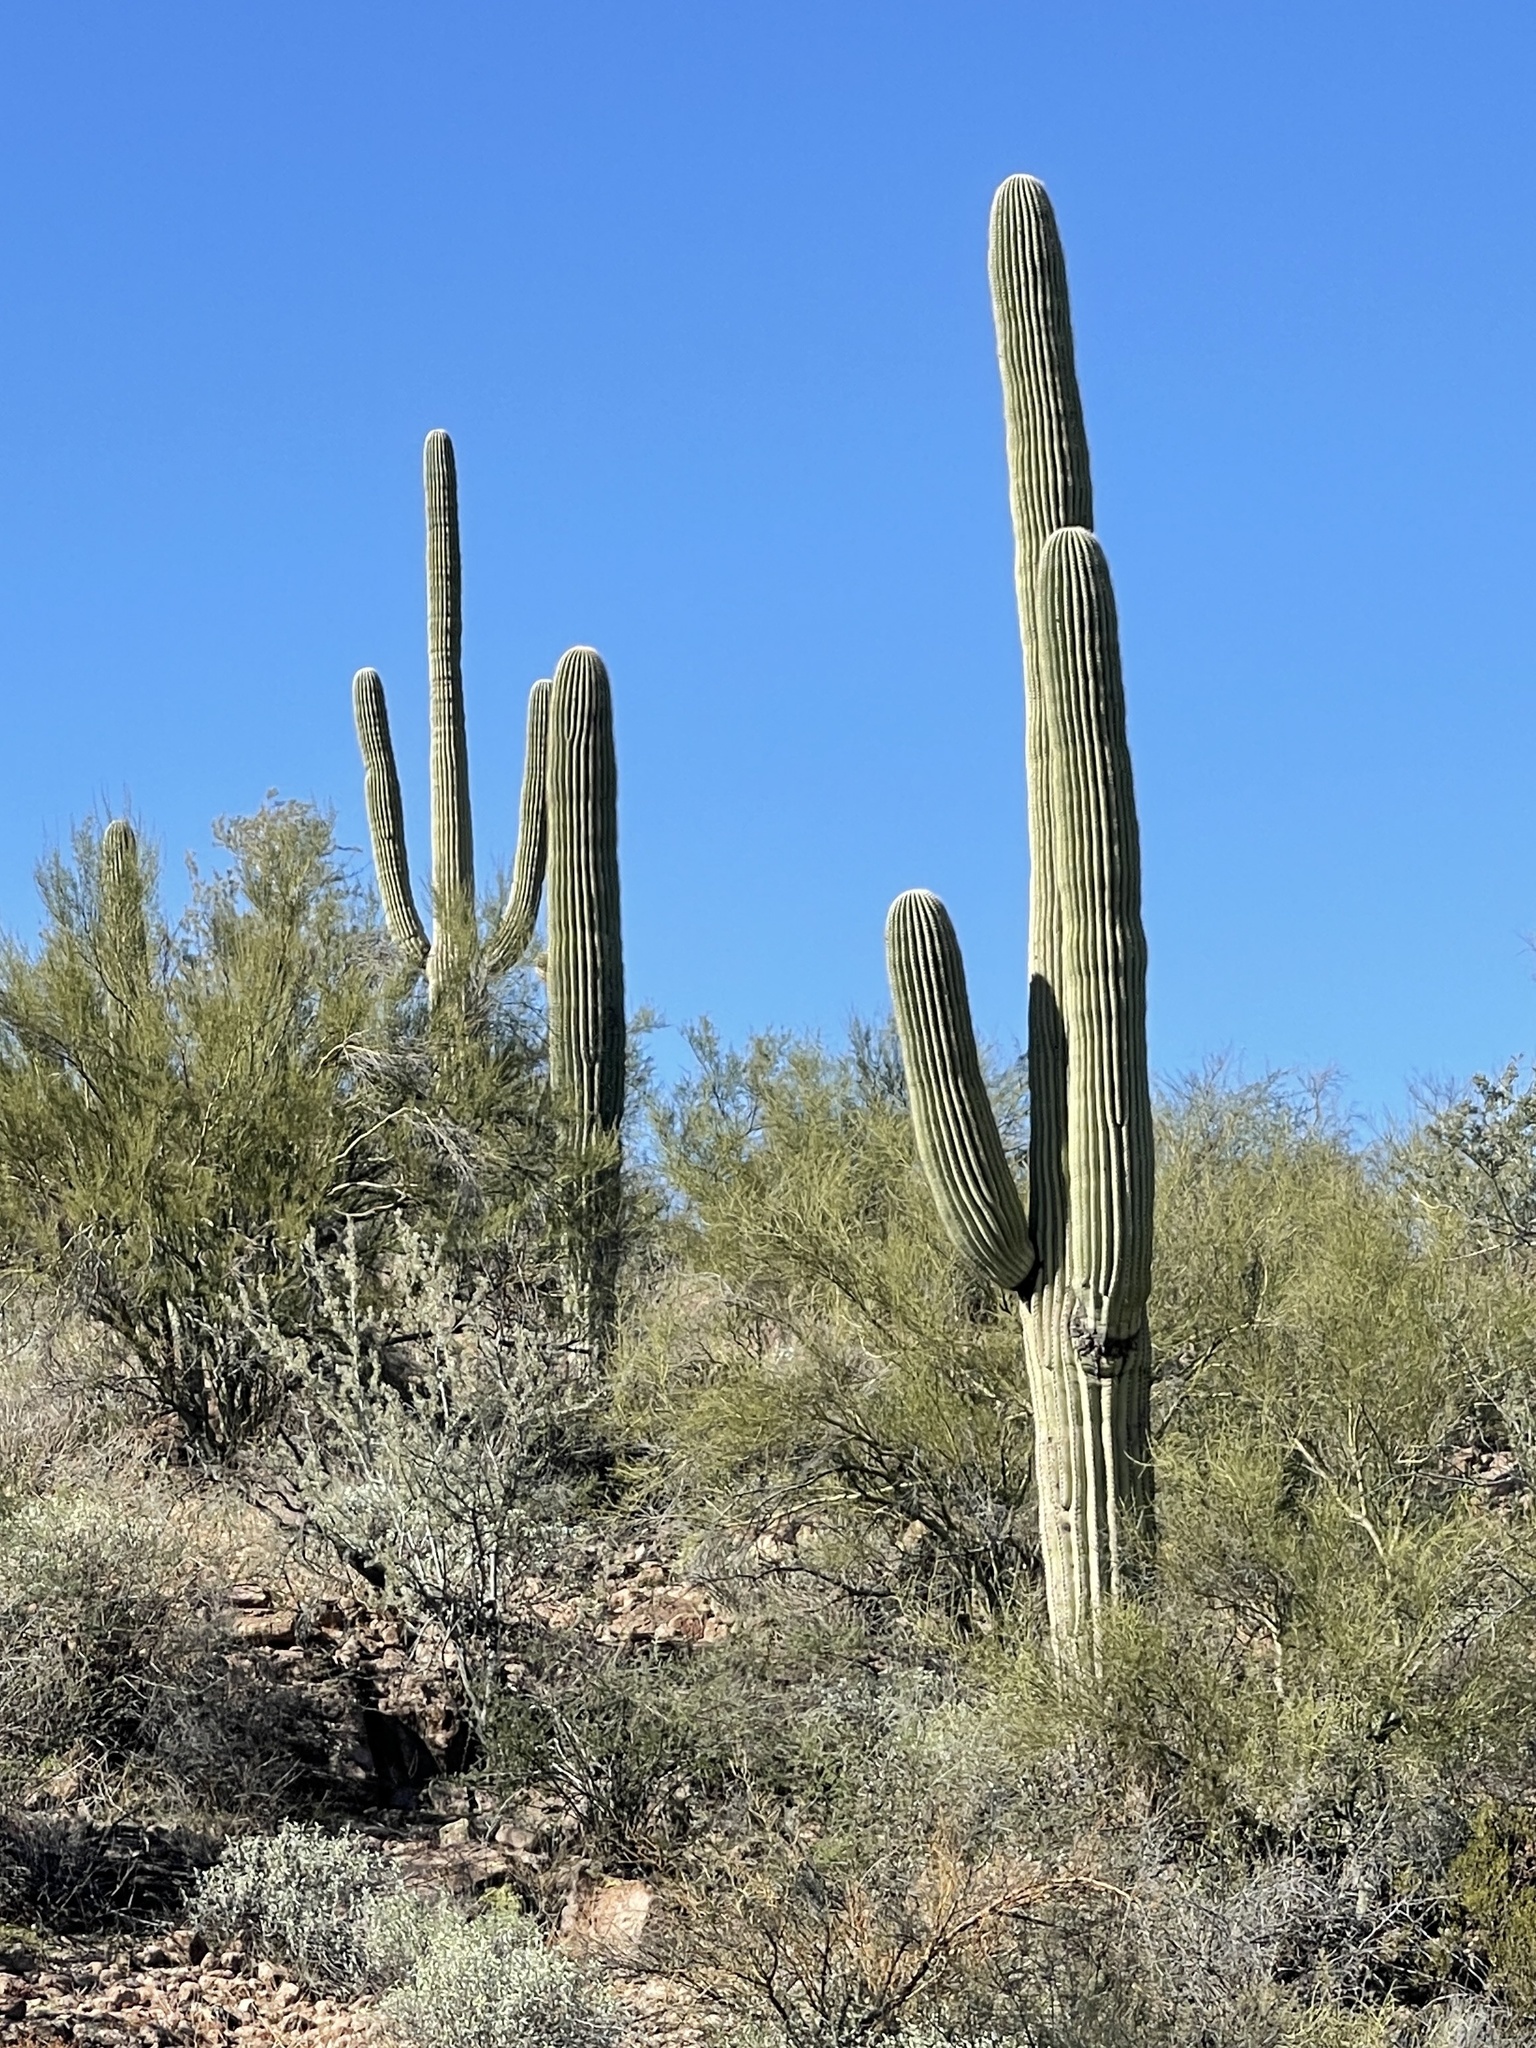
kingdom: Plantae
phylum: Tracheophyta
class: Magnoliopsida
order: Caryophyllales
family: Cactaceae
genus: Carnegiea
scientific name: Carnegiea gigantea
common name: Saguaro
